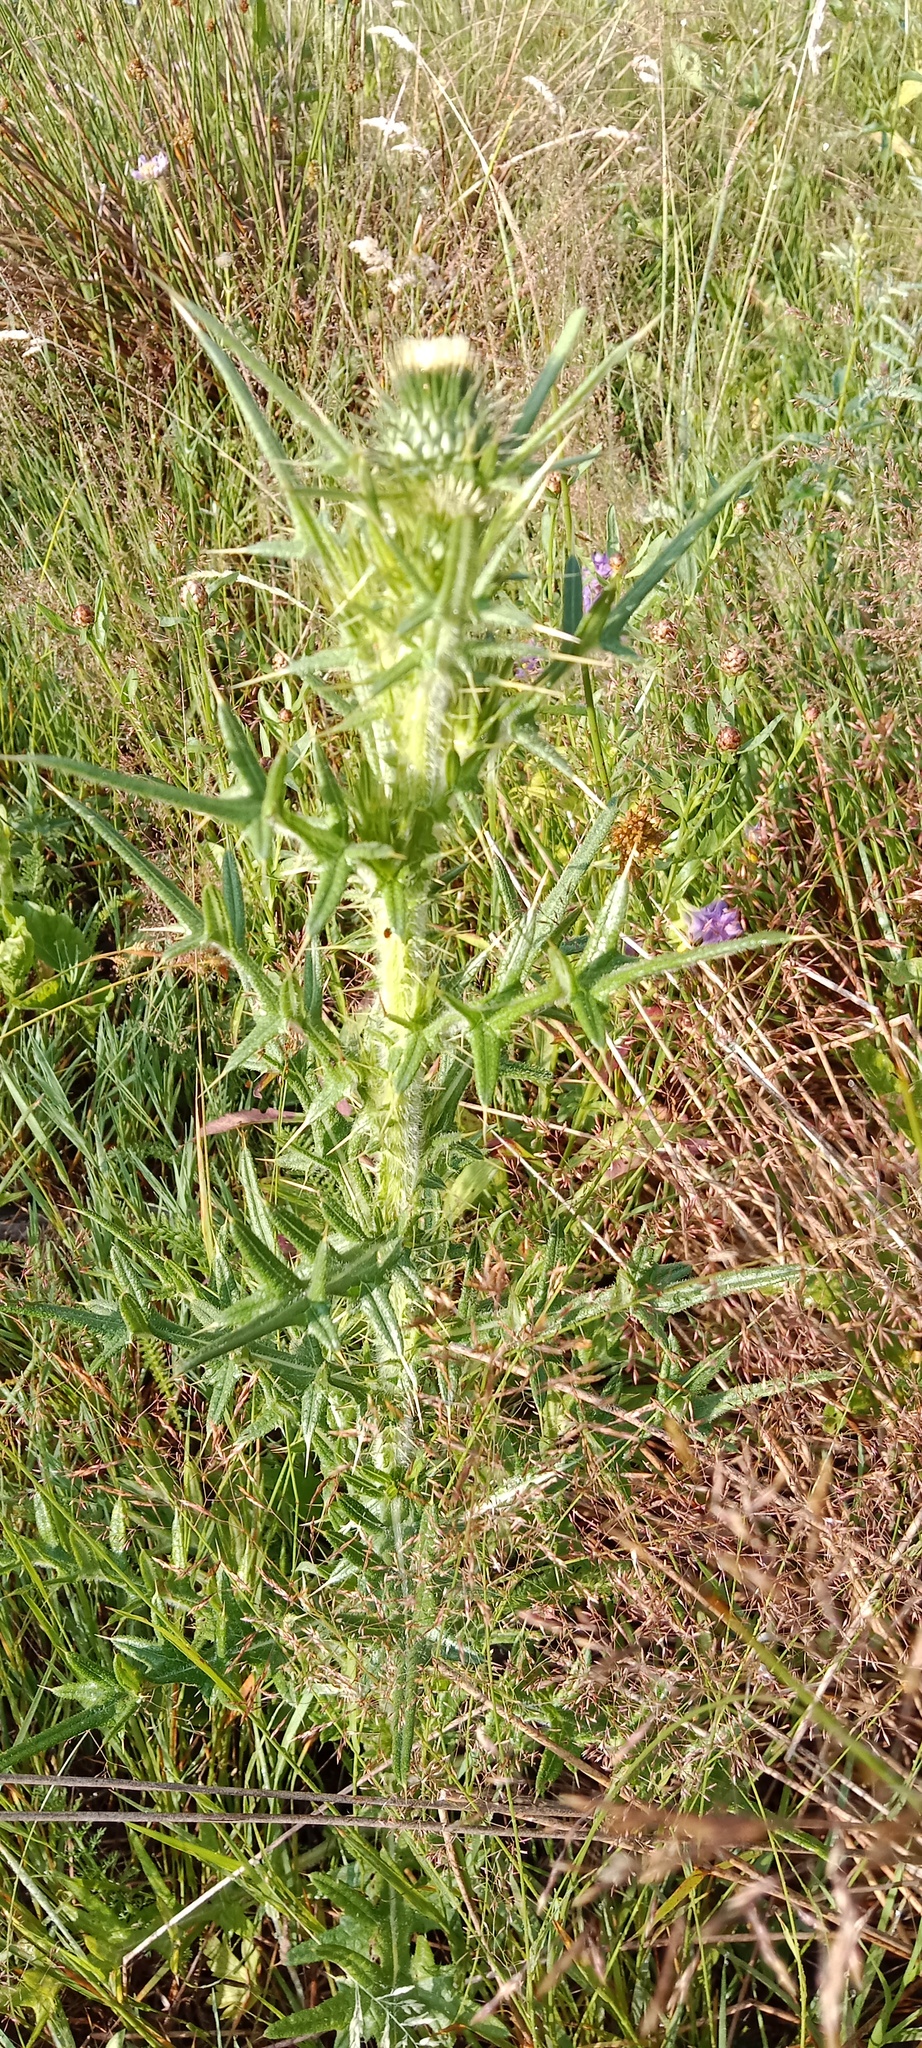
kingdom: Plantae
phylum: Tracheophyta
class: Magnoliopsida
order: Asterales
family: Asteraceae
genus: Cirsium
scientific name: Cirsium vulgare
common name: Bull thistle
